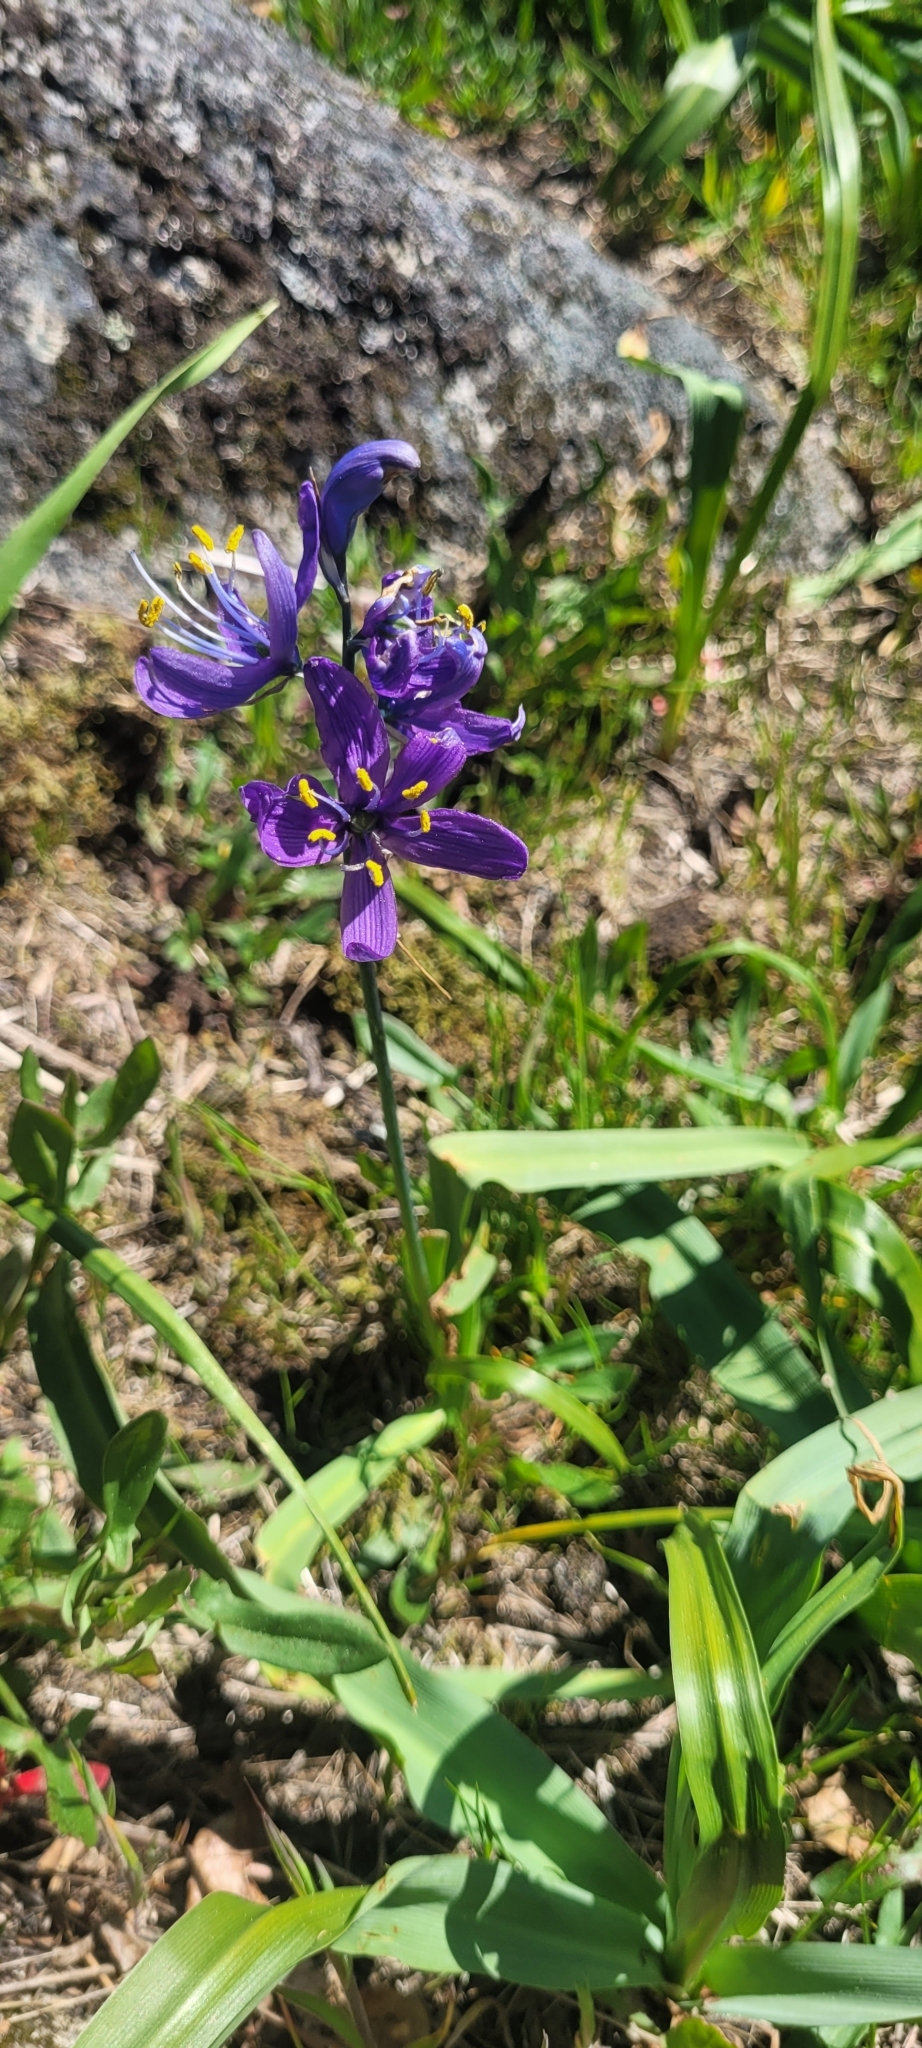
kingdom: Plantae
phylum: Tracheophyta
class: Liliopsida
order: Asparagales
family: Asparagaceae
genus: Camassia
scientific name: Camassia quamash
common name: Common camas
